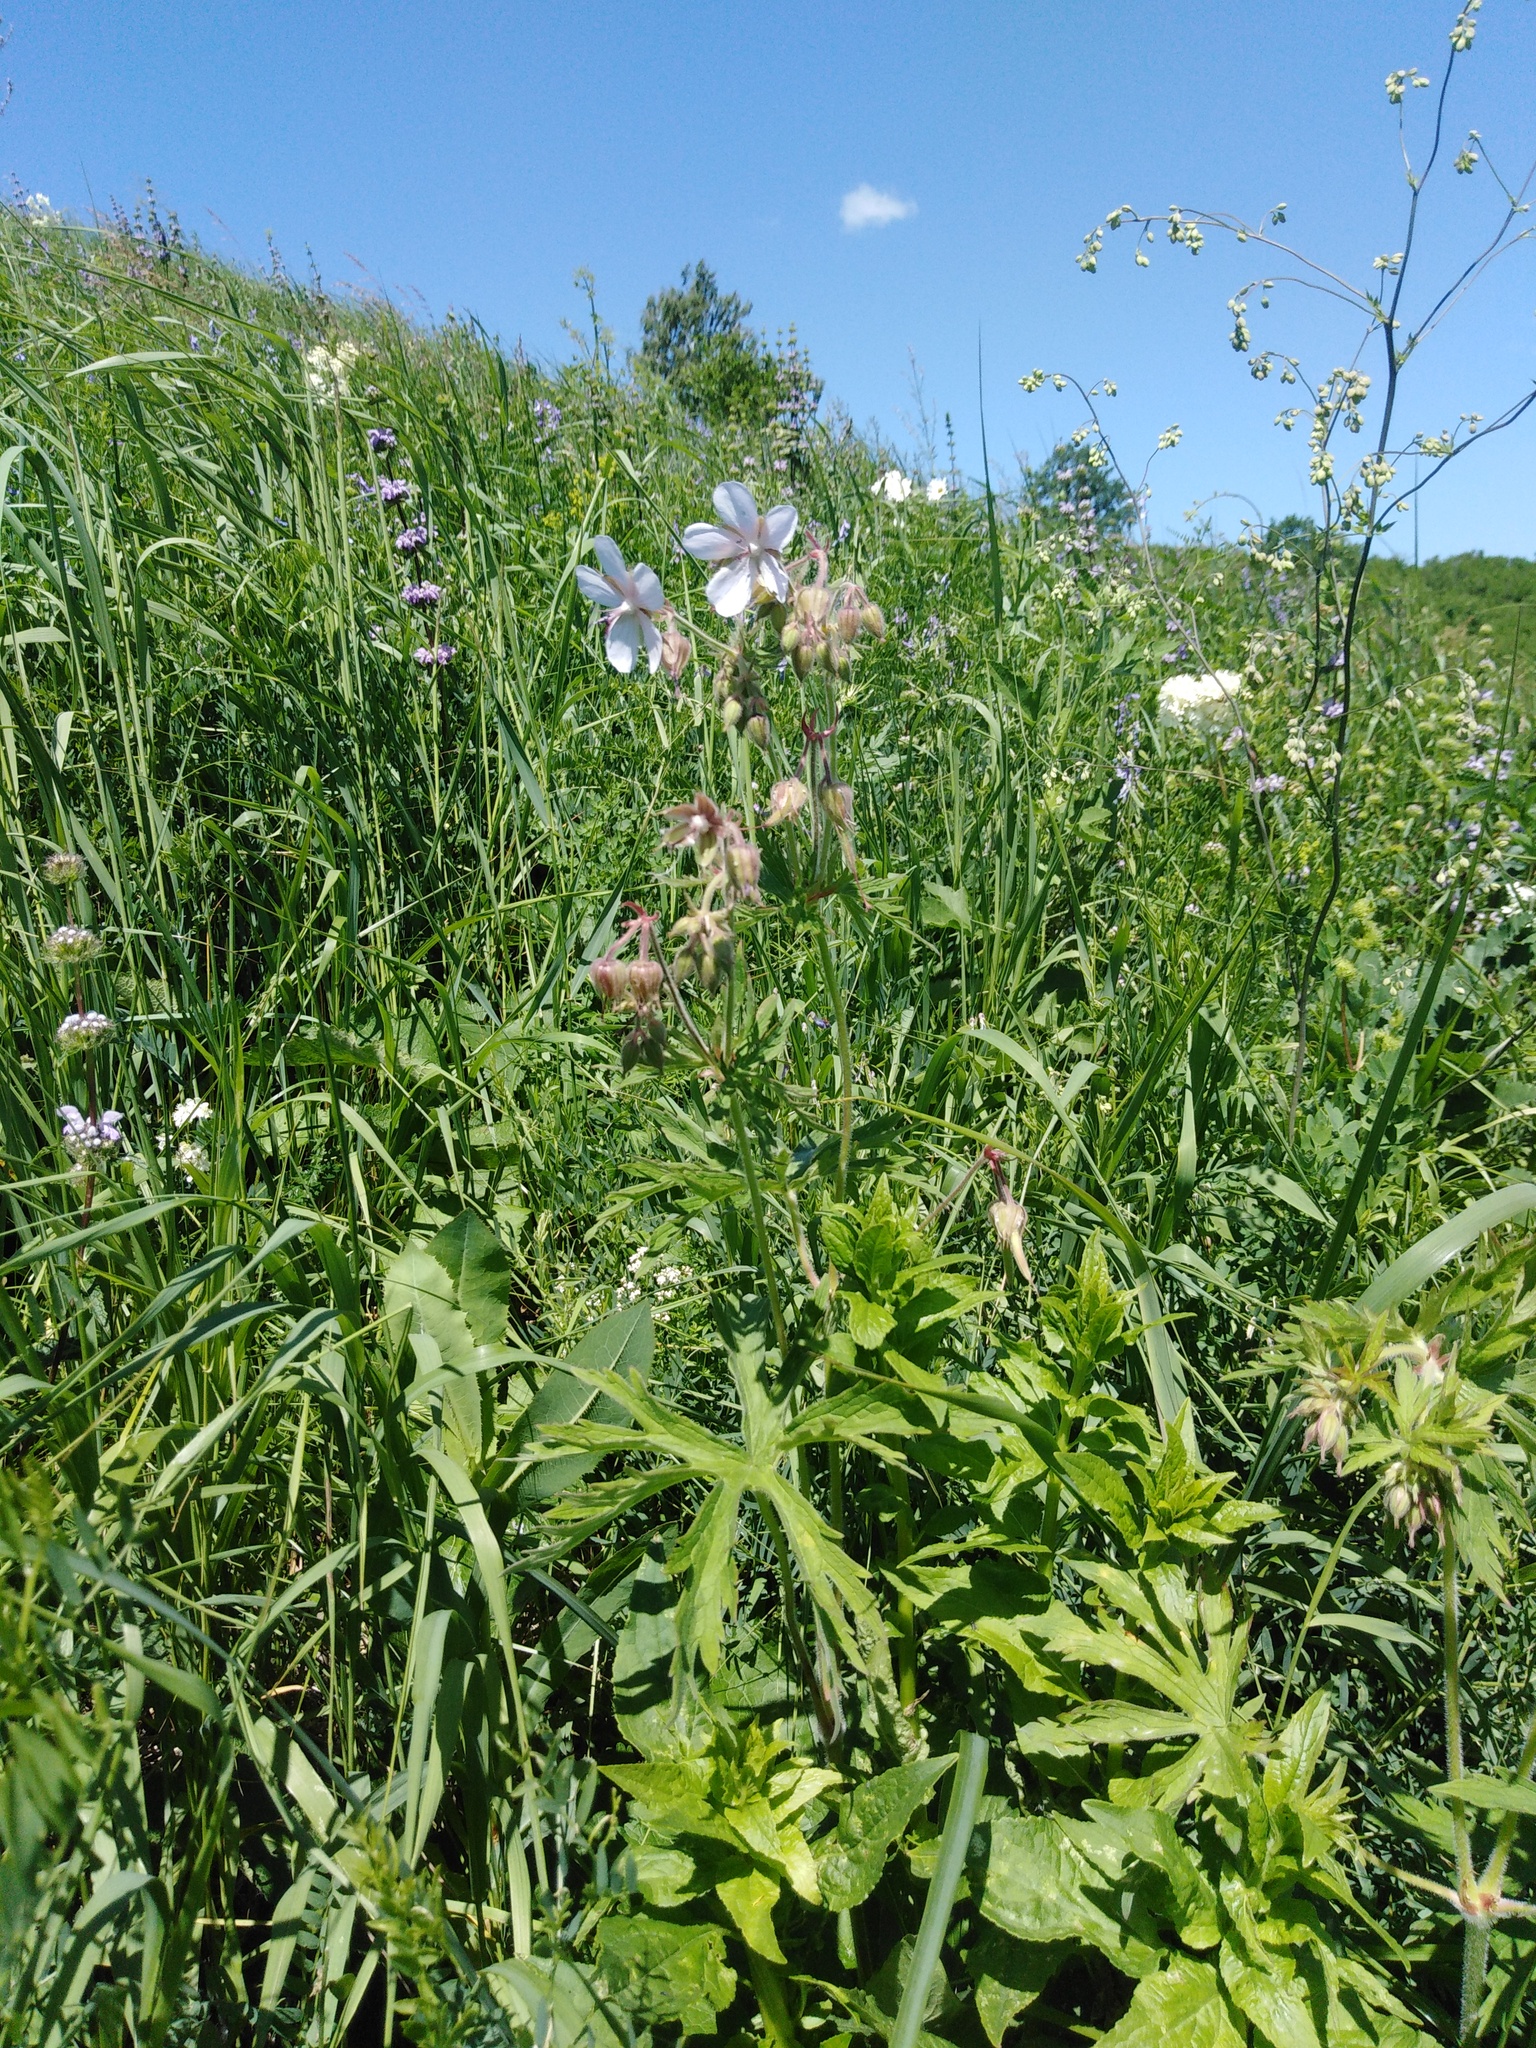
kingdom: Plantae
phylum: Tracheophyta
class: Magnoliopsida
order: Geraniales
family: Geraniaceae
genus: Geranium
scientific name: Geranium pratense
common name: Meadow crane's-bill
